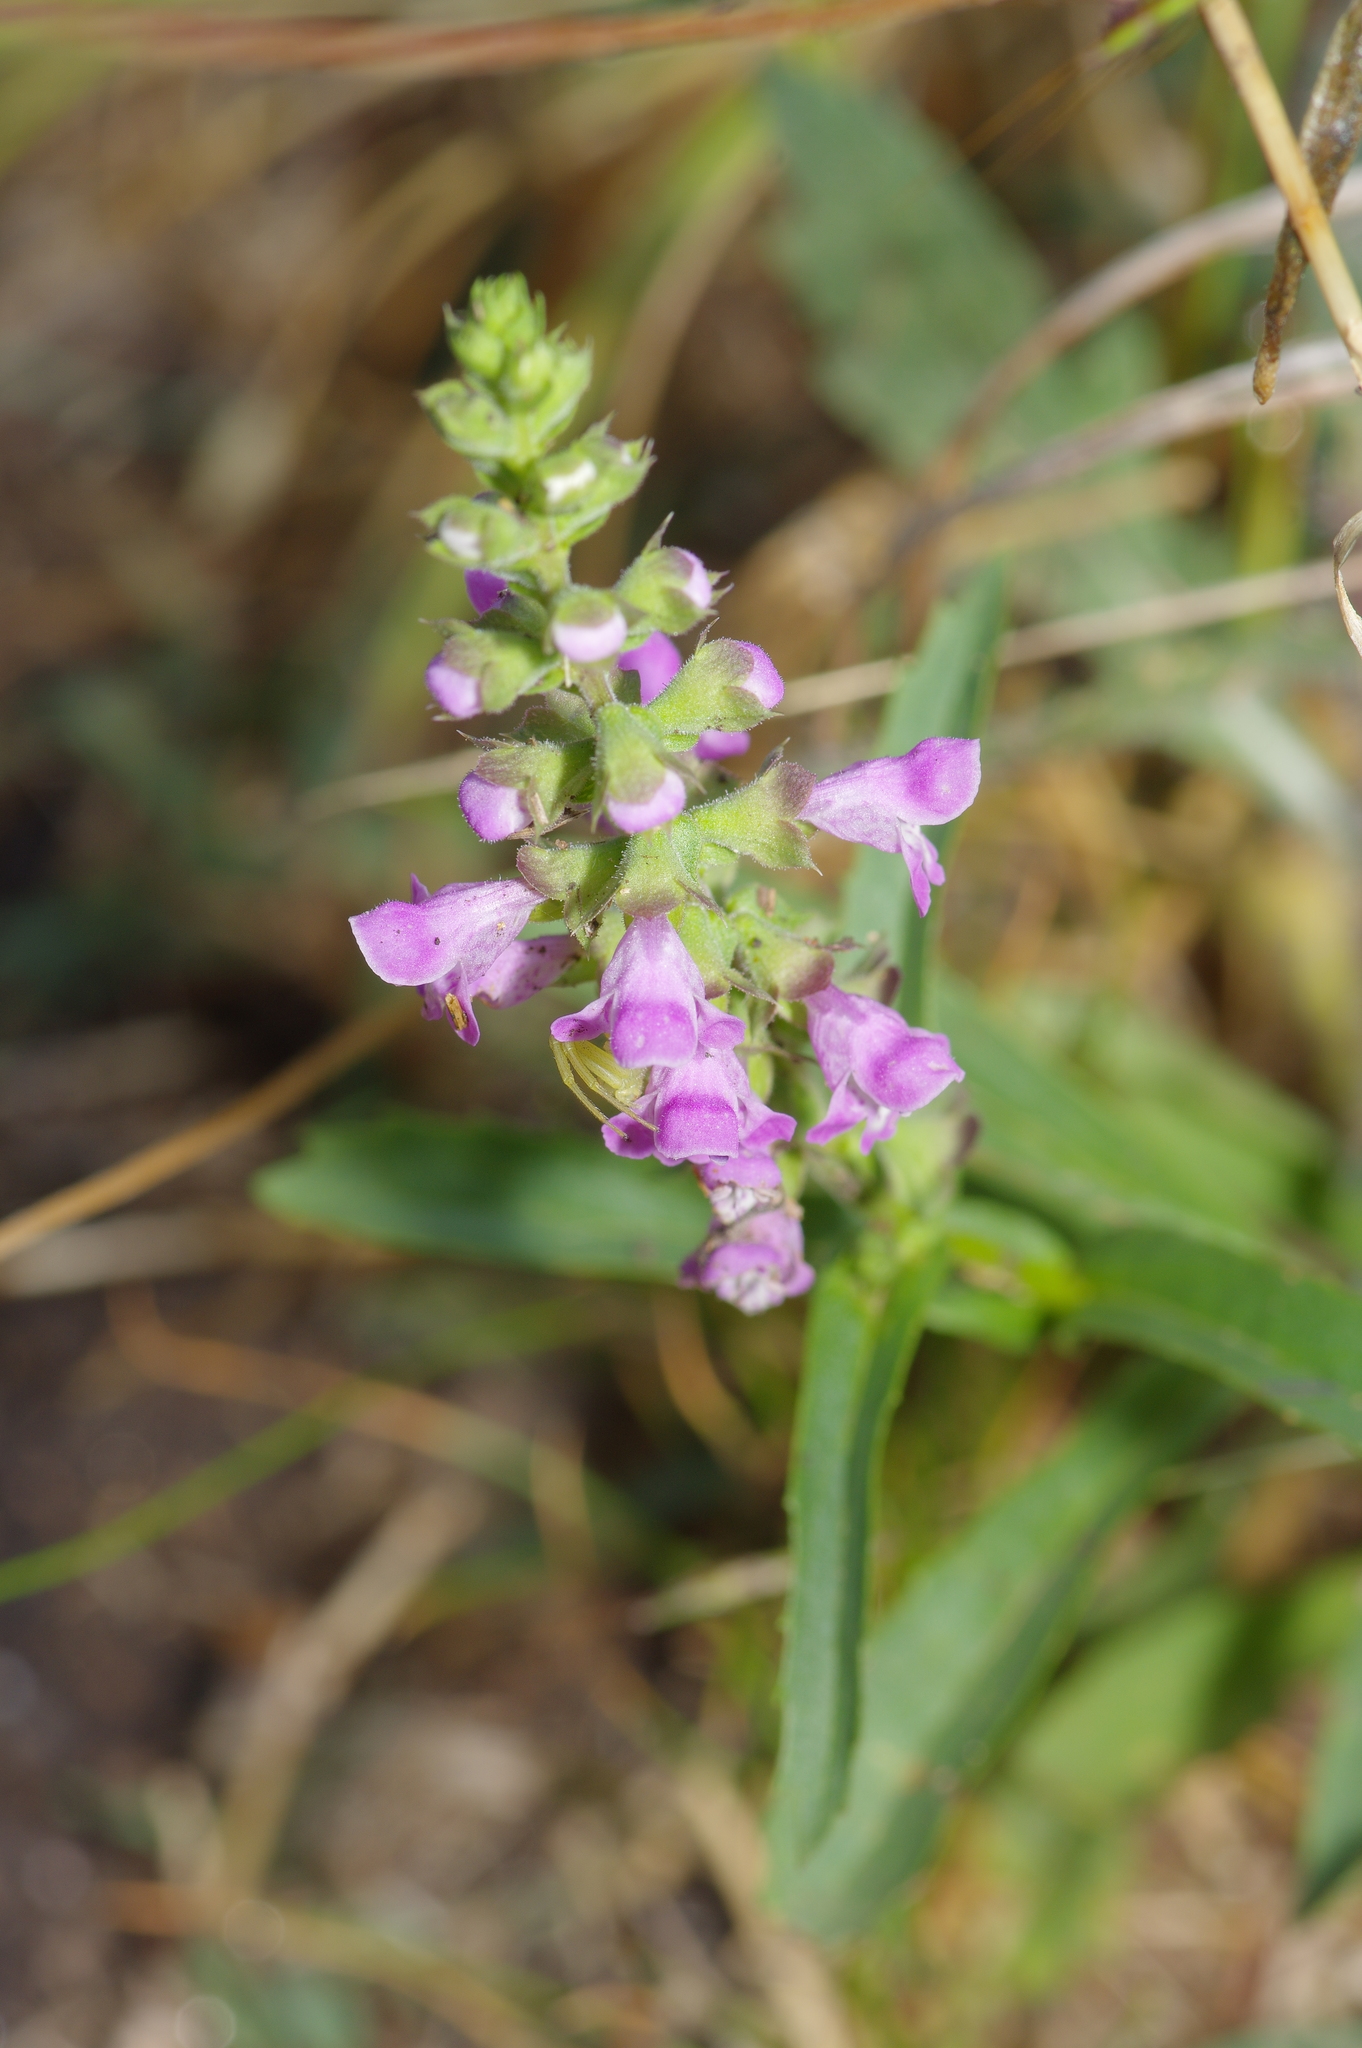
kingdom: Plantae
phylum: Tracheophyta
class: Magnoliopsida
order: Lamiales
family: Lamiaceae
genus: Warnockia
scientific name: Warnockia scutellarioides
